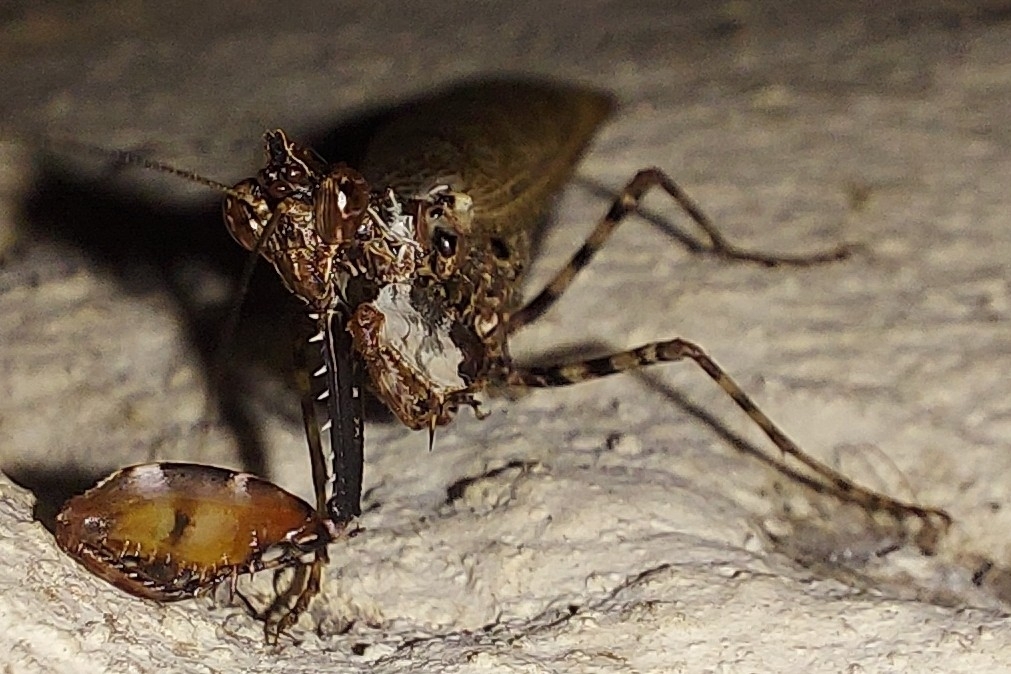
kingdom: Animalia
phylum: Arthropoda
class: Insecta
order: Mantodea
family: Hymenopodidae
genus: Oxypilus
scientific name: Oxypilus capensis
